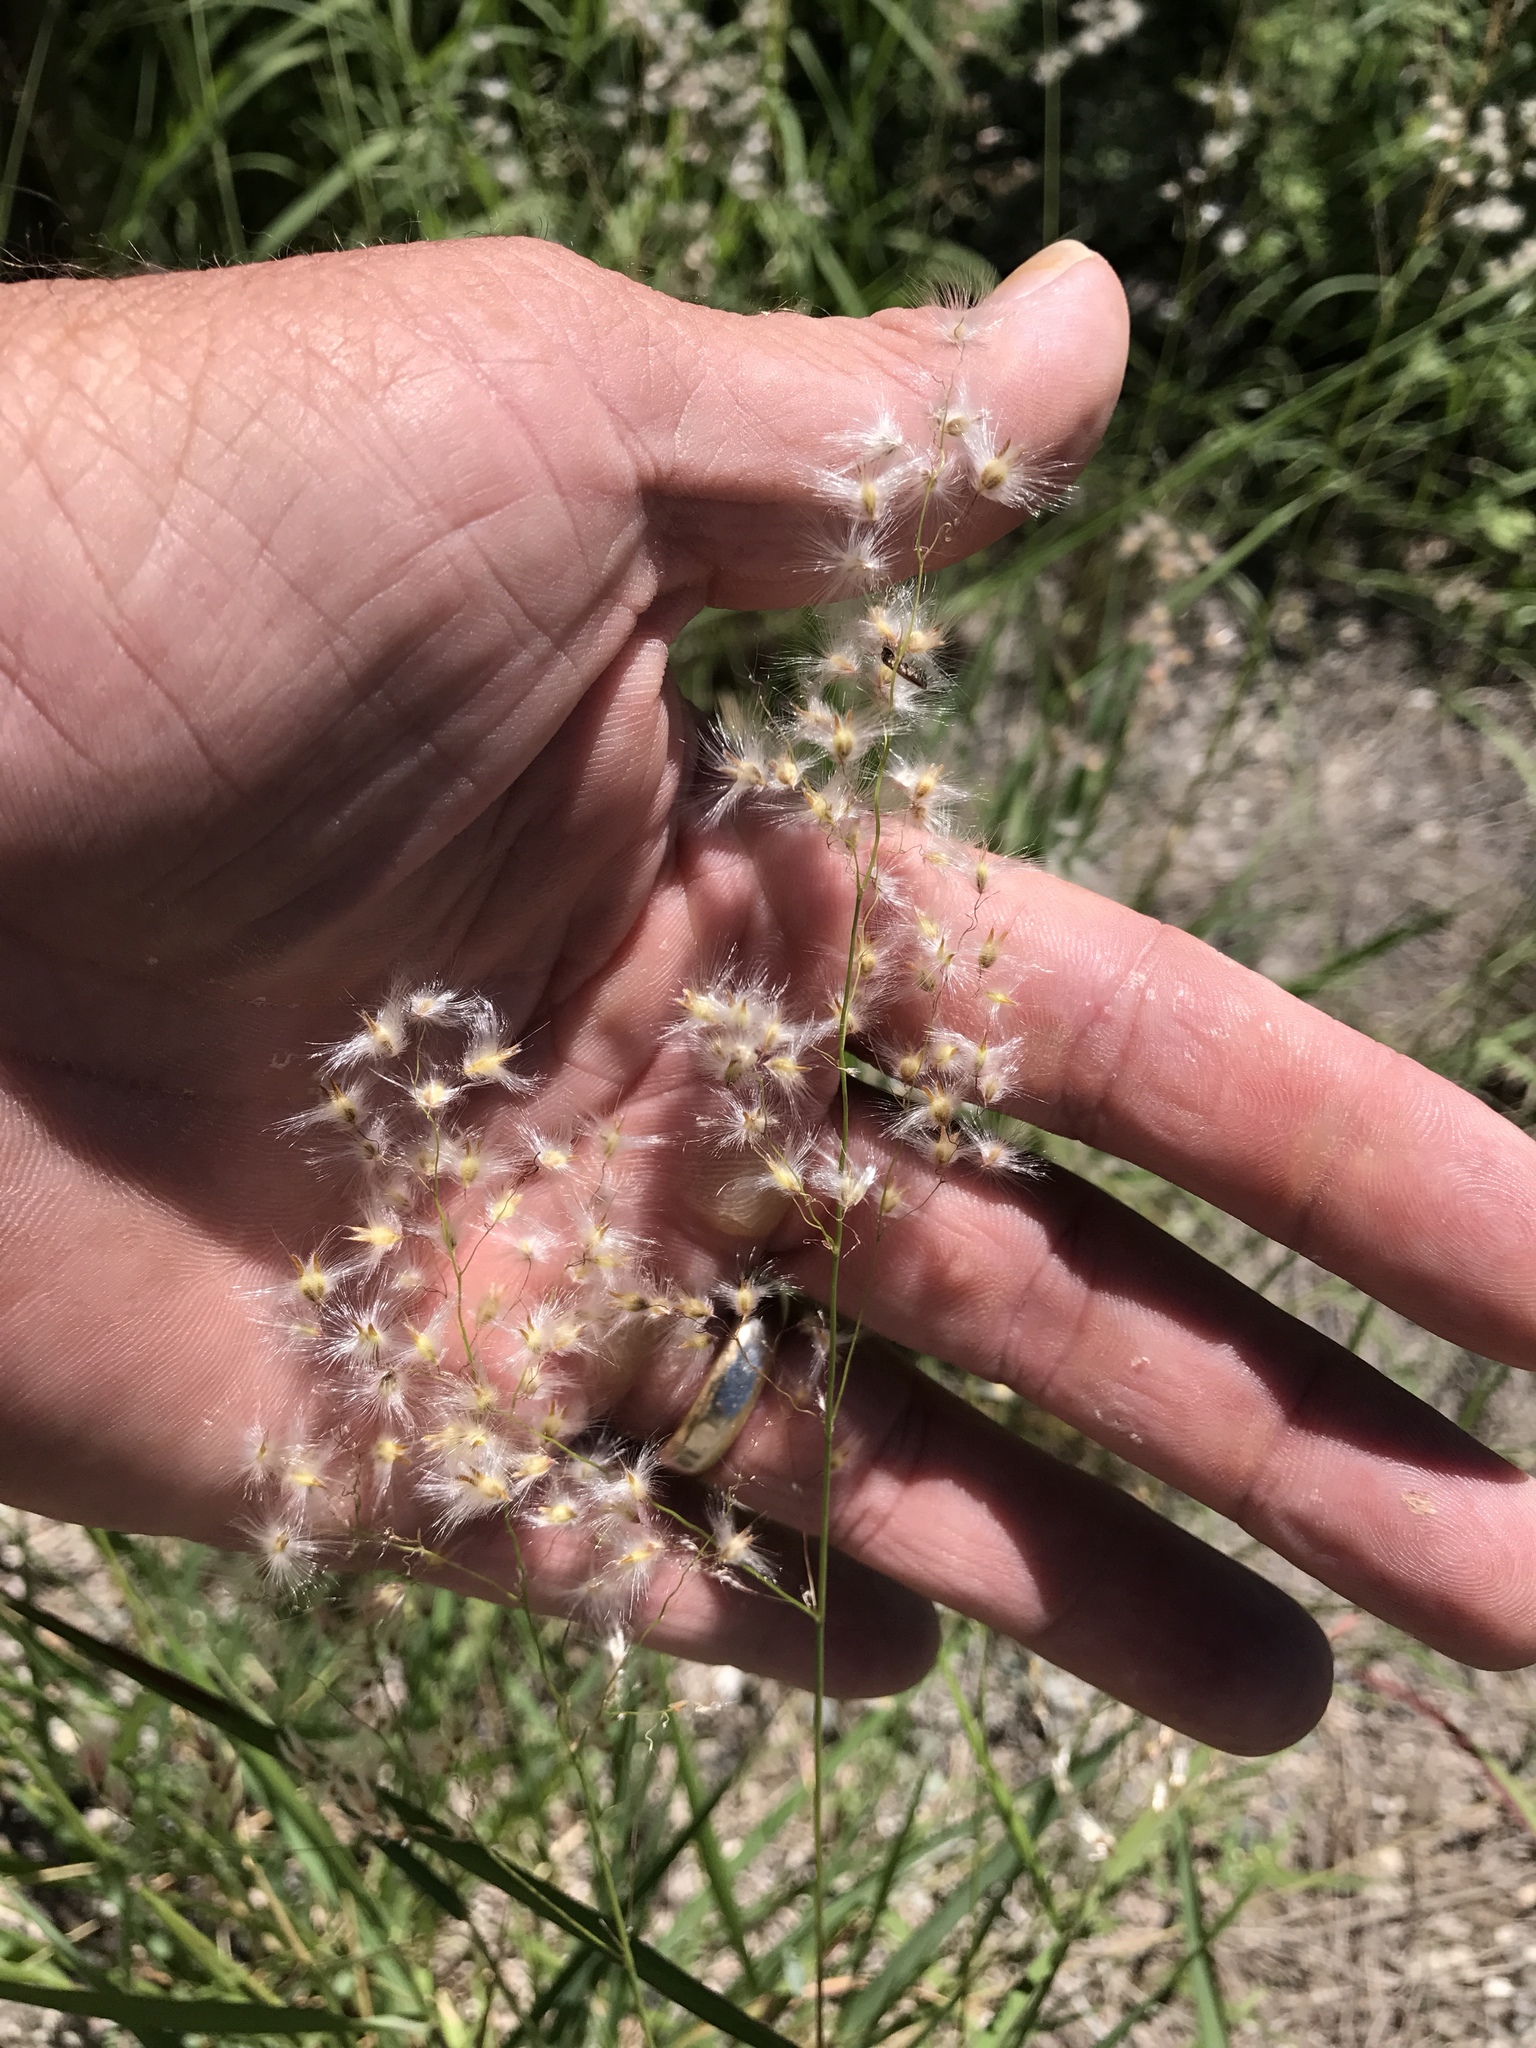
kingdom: Plantae
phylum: Tracheophyta
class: Liliopsida
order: Poales
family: Poaceae
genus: Melinis
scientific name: Melinis repens
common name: Rose natal grass
